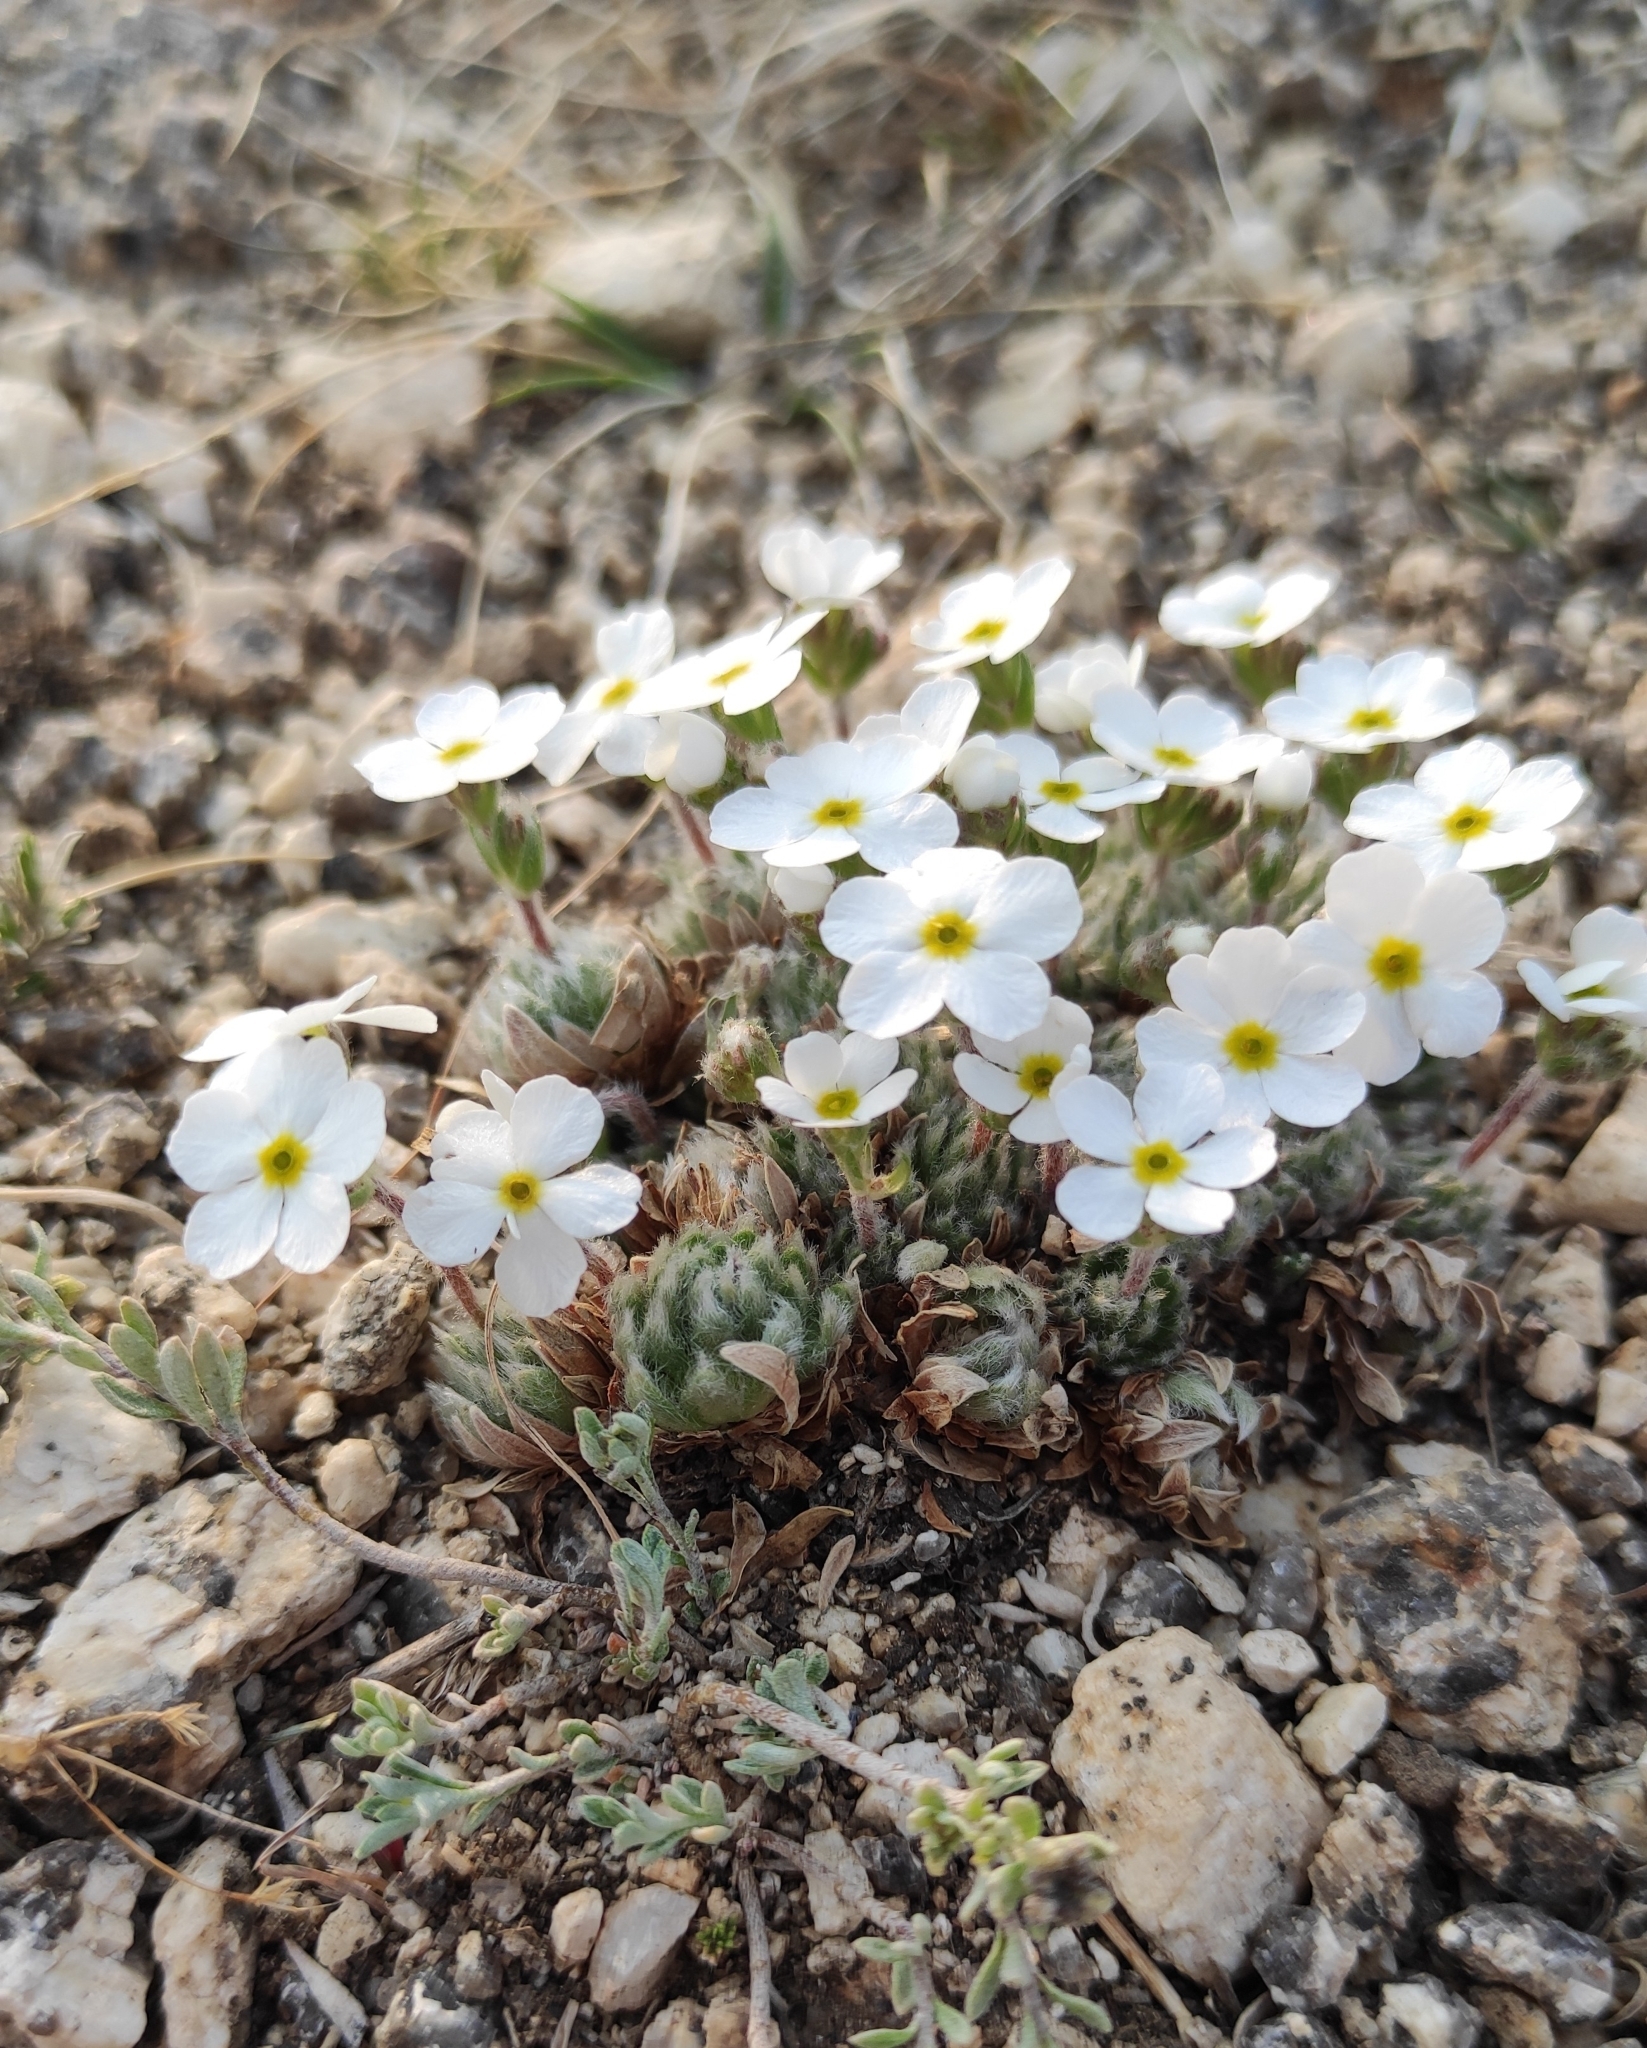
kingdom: Plantae
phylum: Tracheophyta
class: Magnoliopsida
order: Ericales
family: Primulaceae
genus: Androsace
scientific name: Androsace incana
